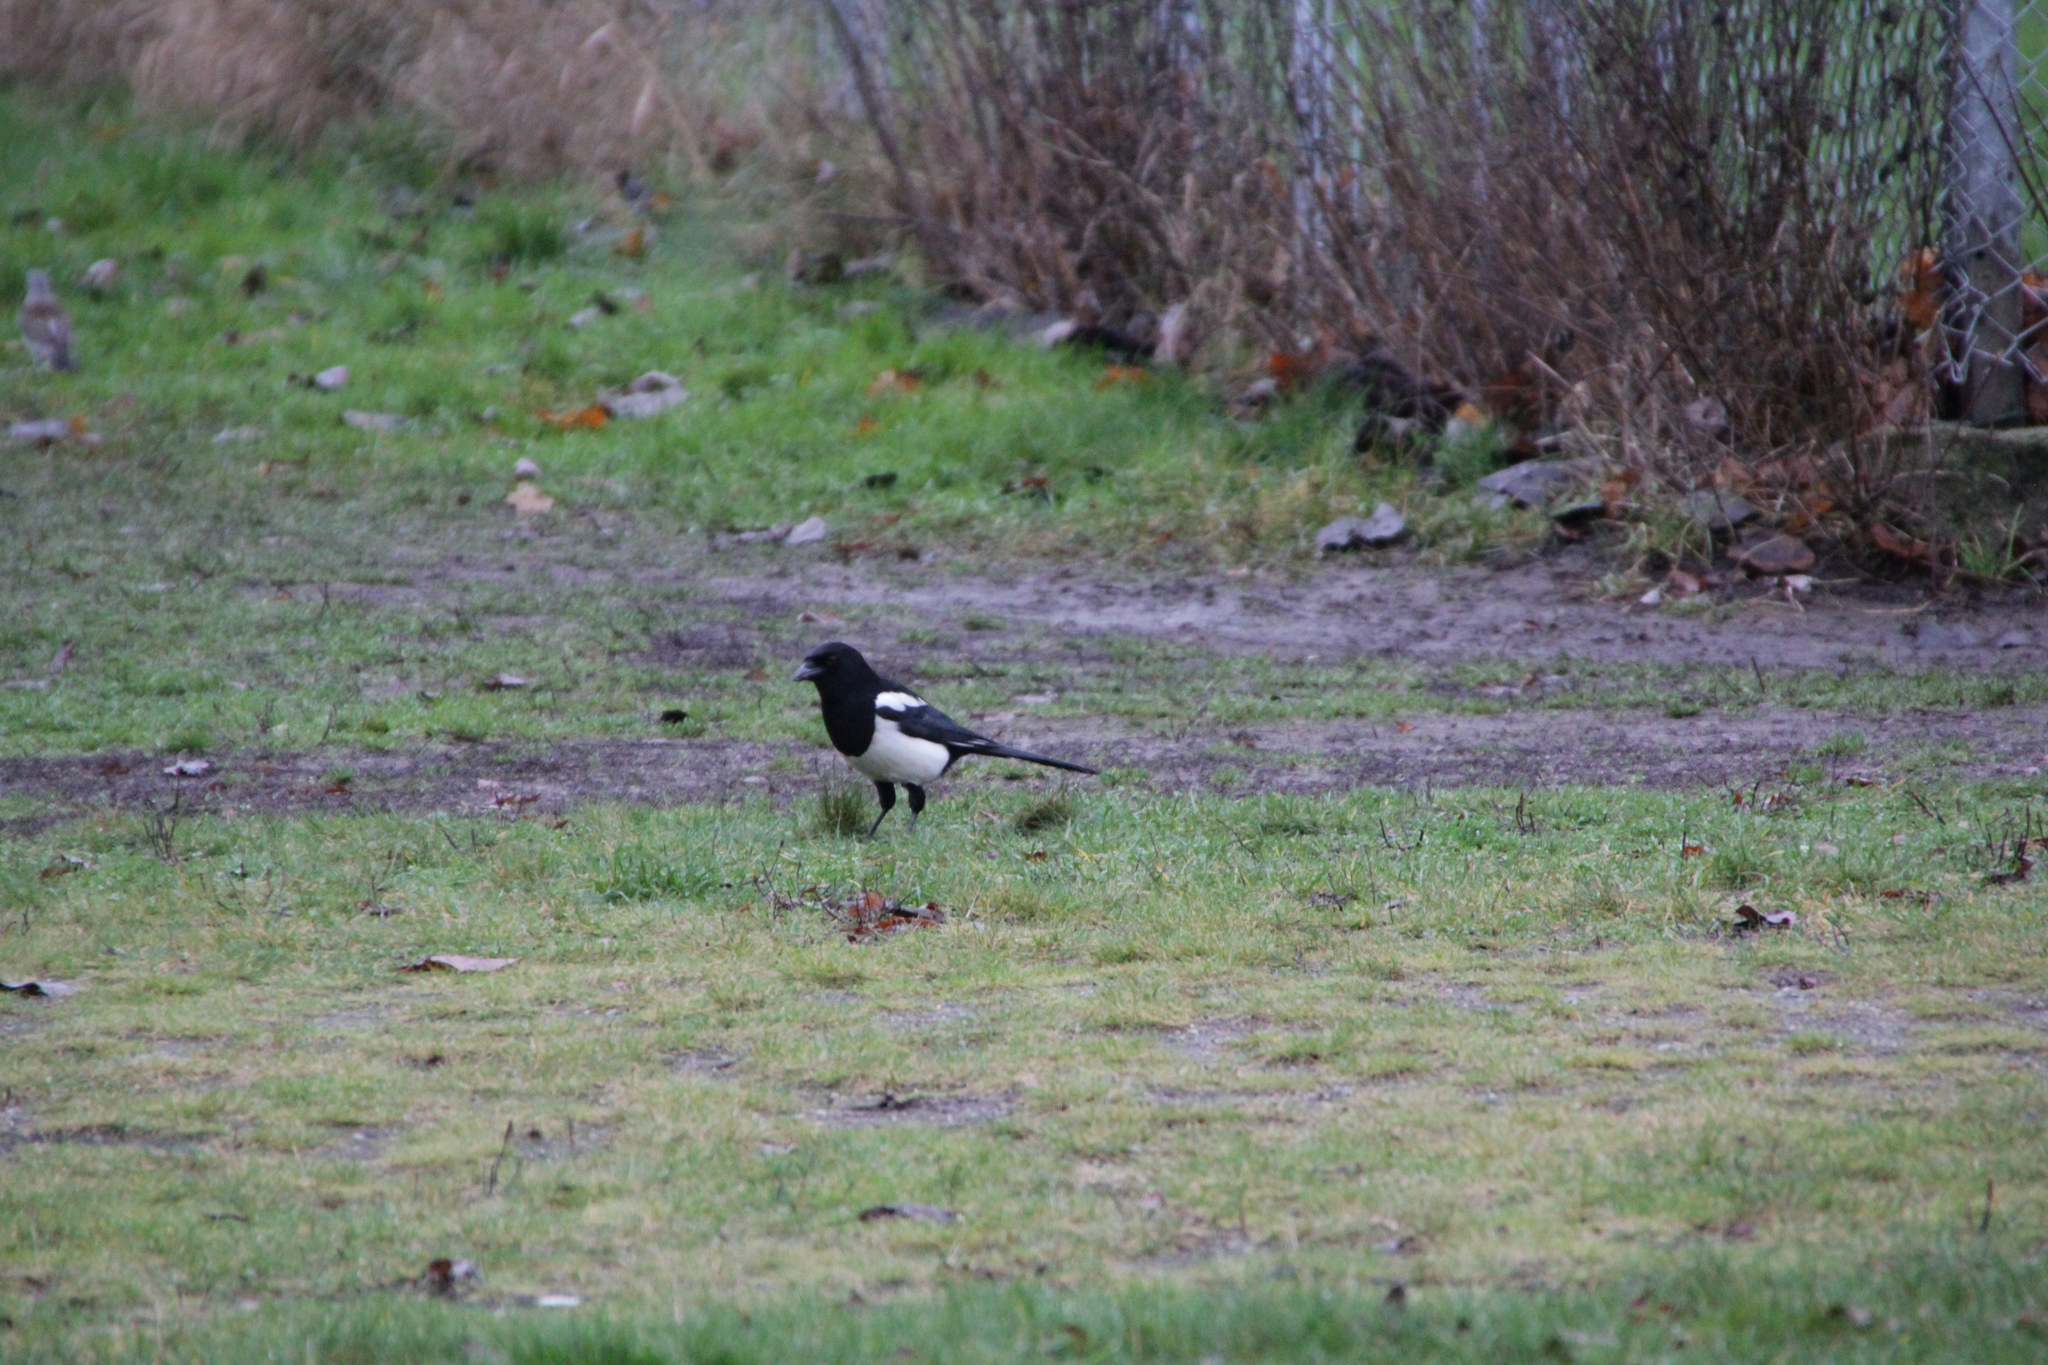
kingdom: Animalia
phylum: Chordata
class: Aves
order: Passeriformes
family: Corvidae
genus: Pica
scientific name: Pica pica
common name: Eurasian magpie
